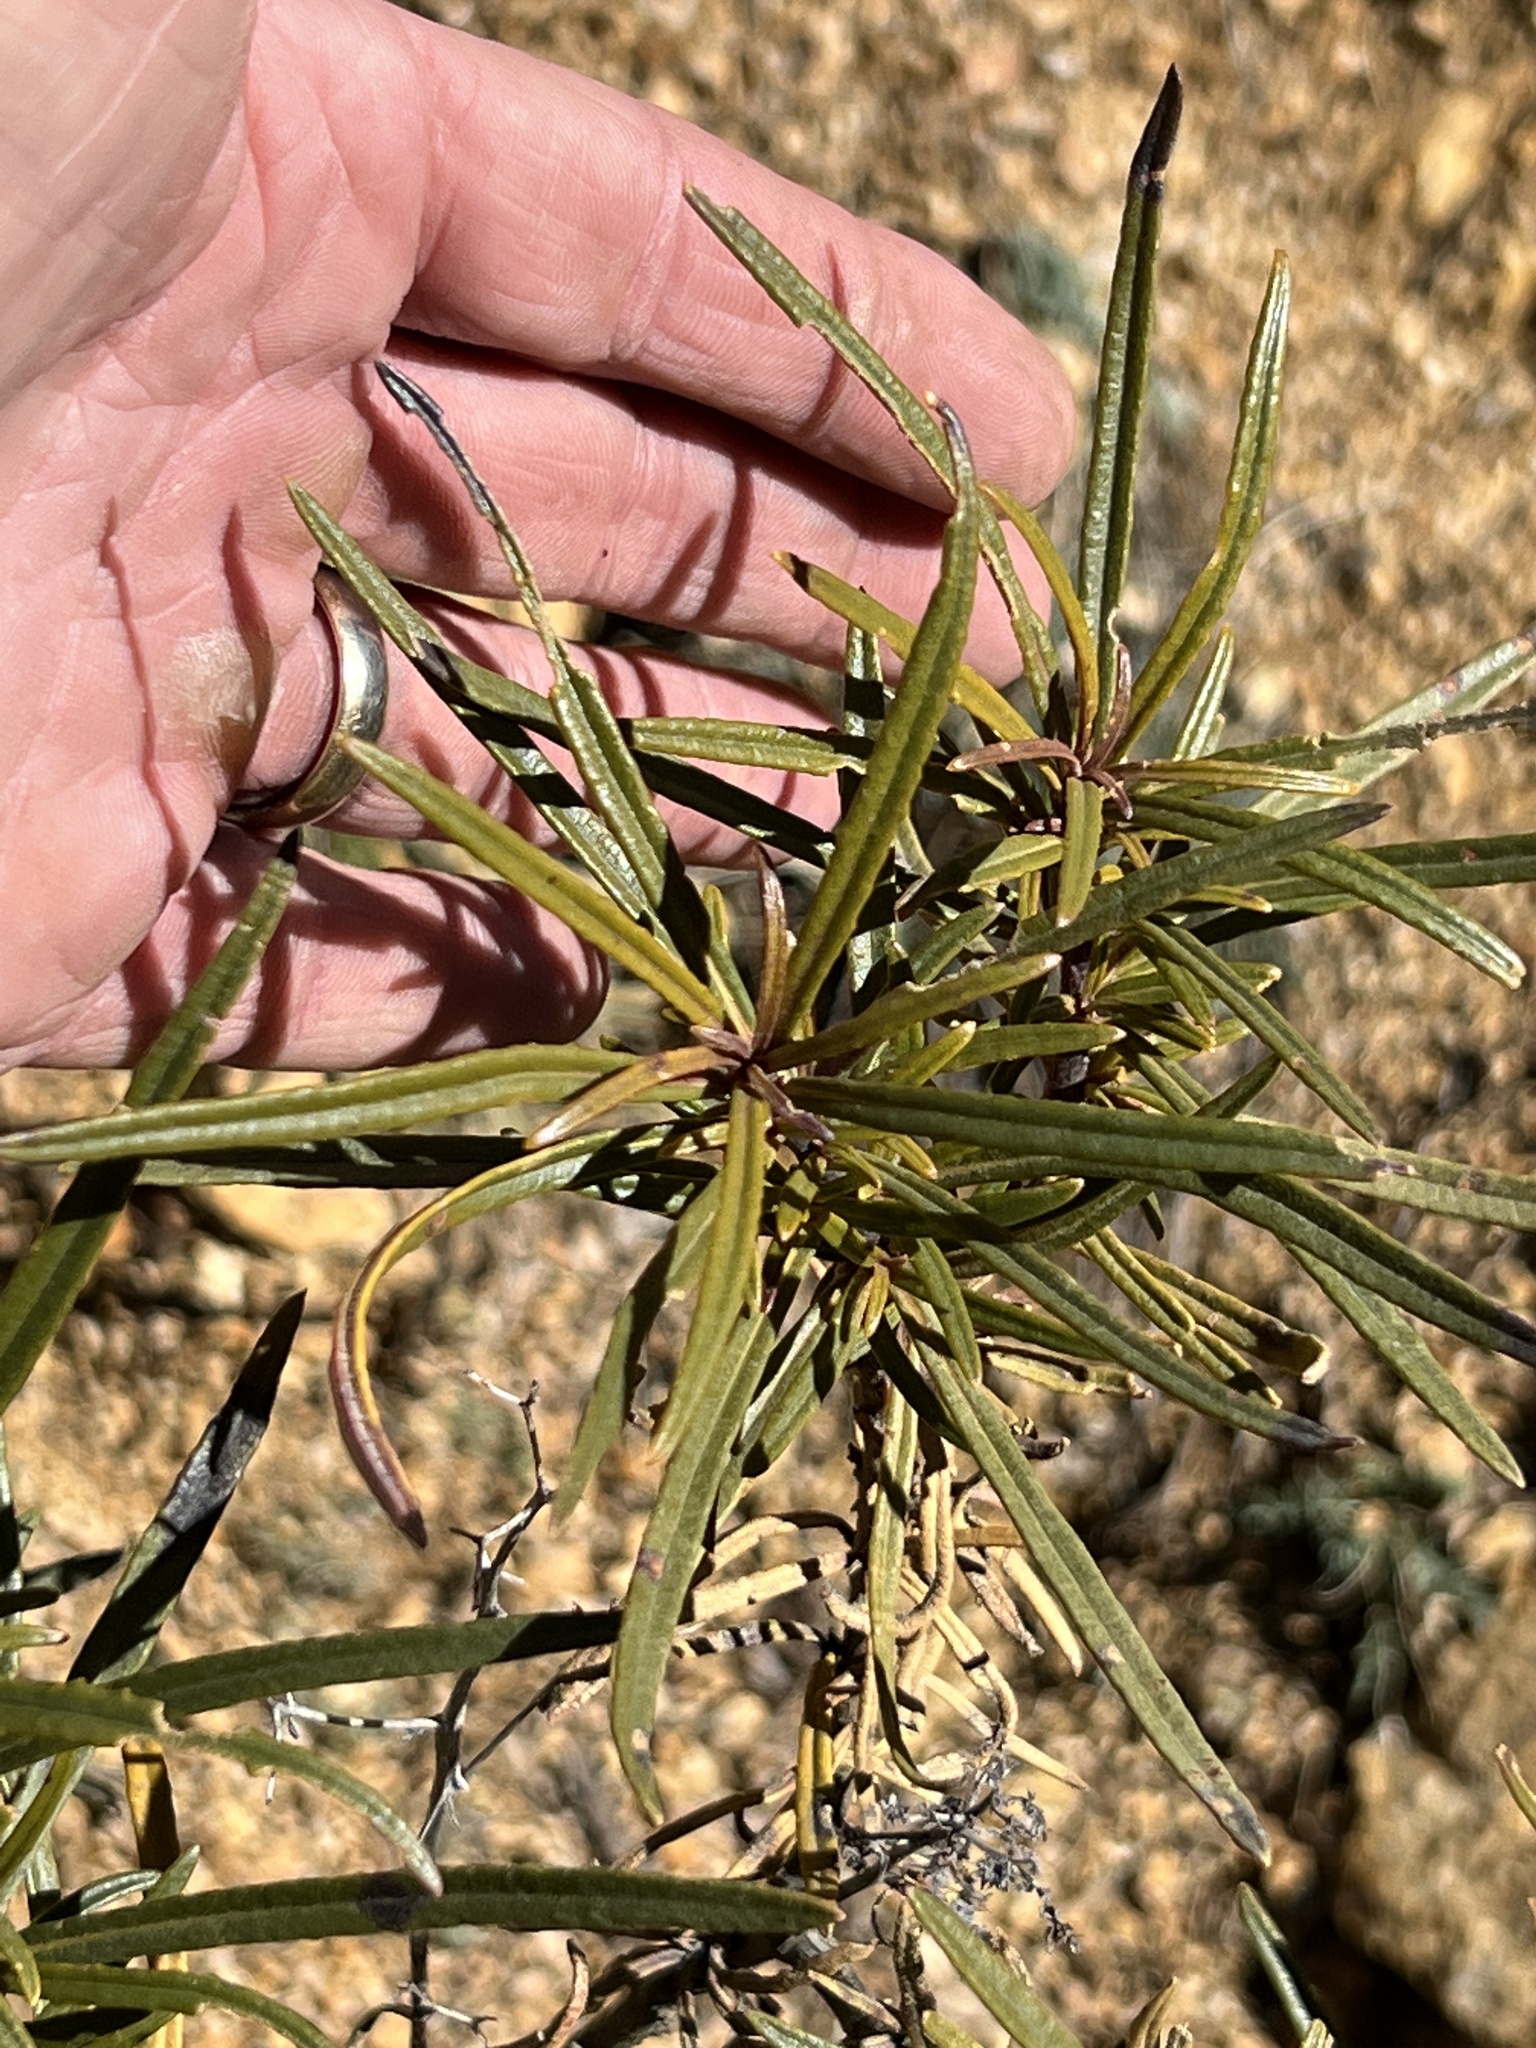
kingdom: Plantae
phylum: Tracheophyta
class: Magnoliopsida
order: Boraginales
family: Namaceae
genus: Eriodictyon
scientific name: Eriodictyon angustifolium
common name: Narrow-leaf yerba santa
